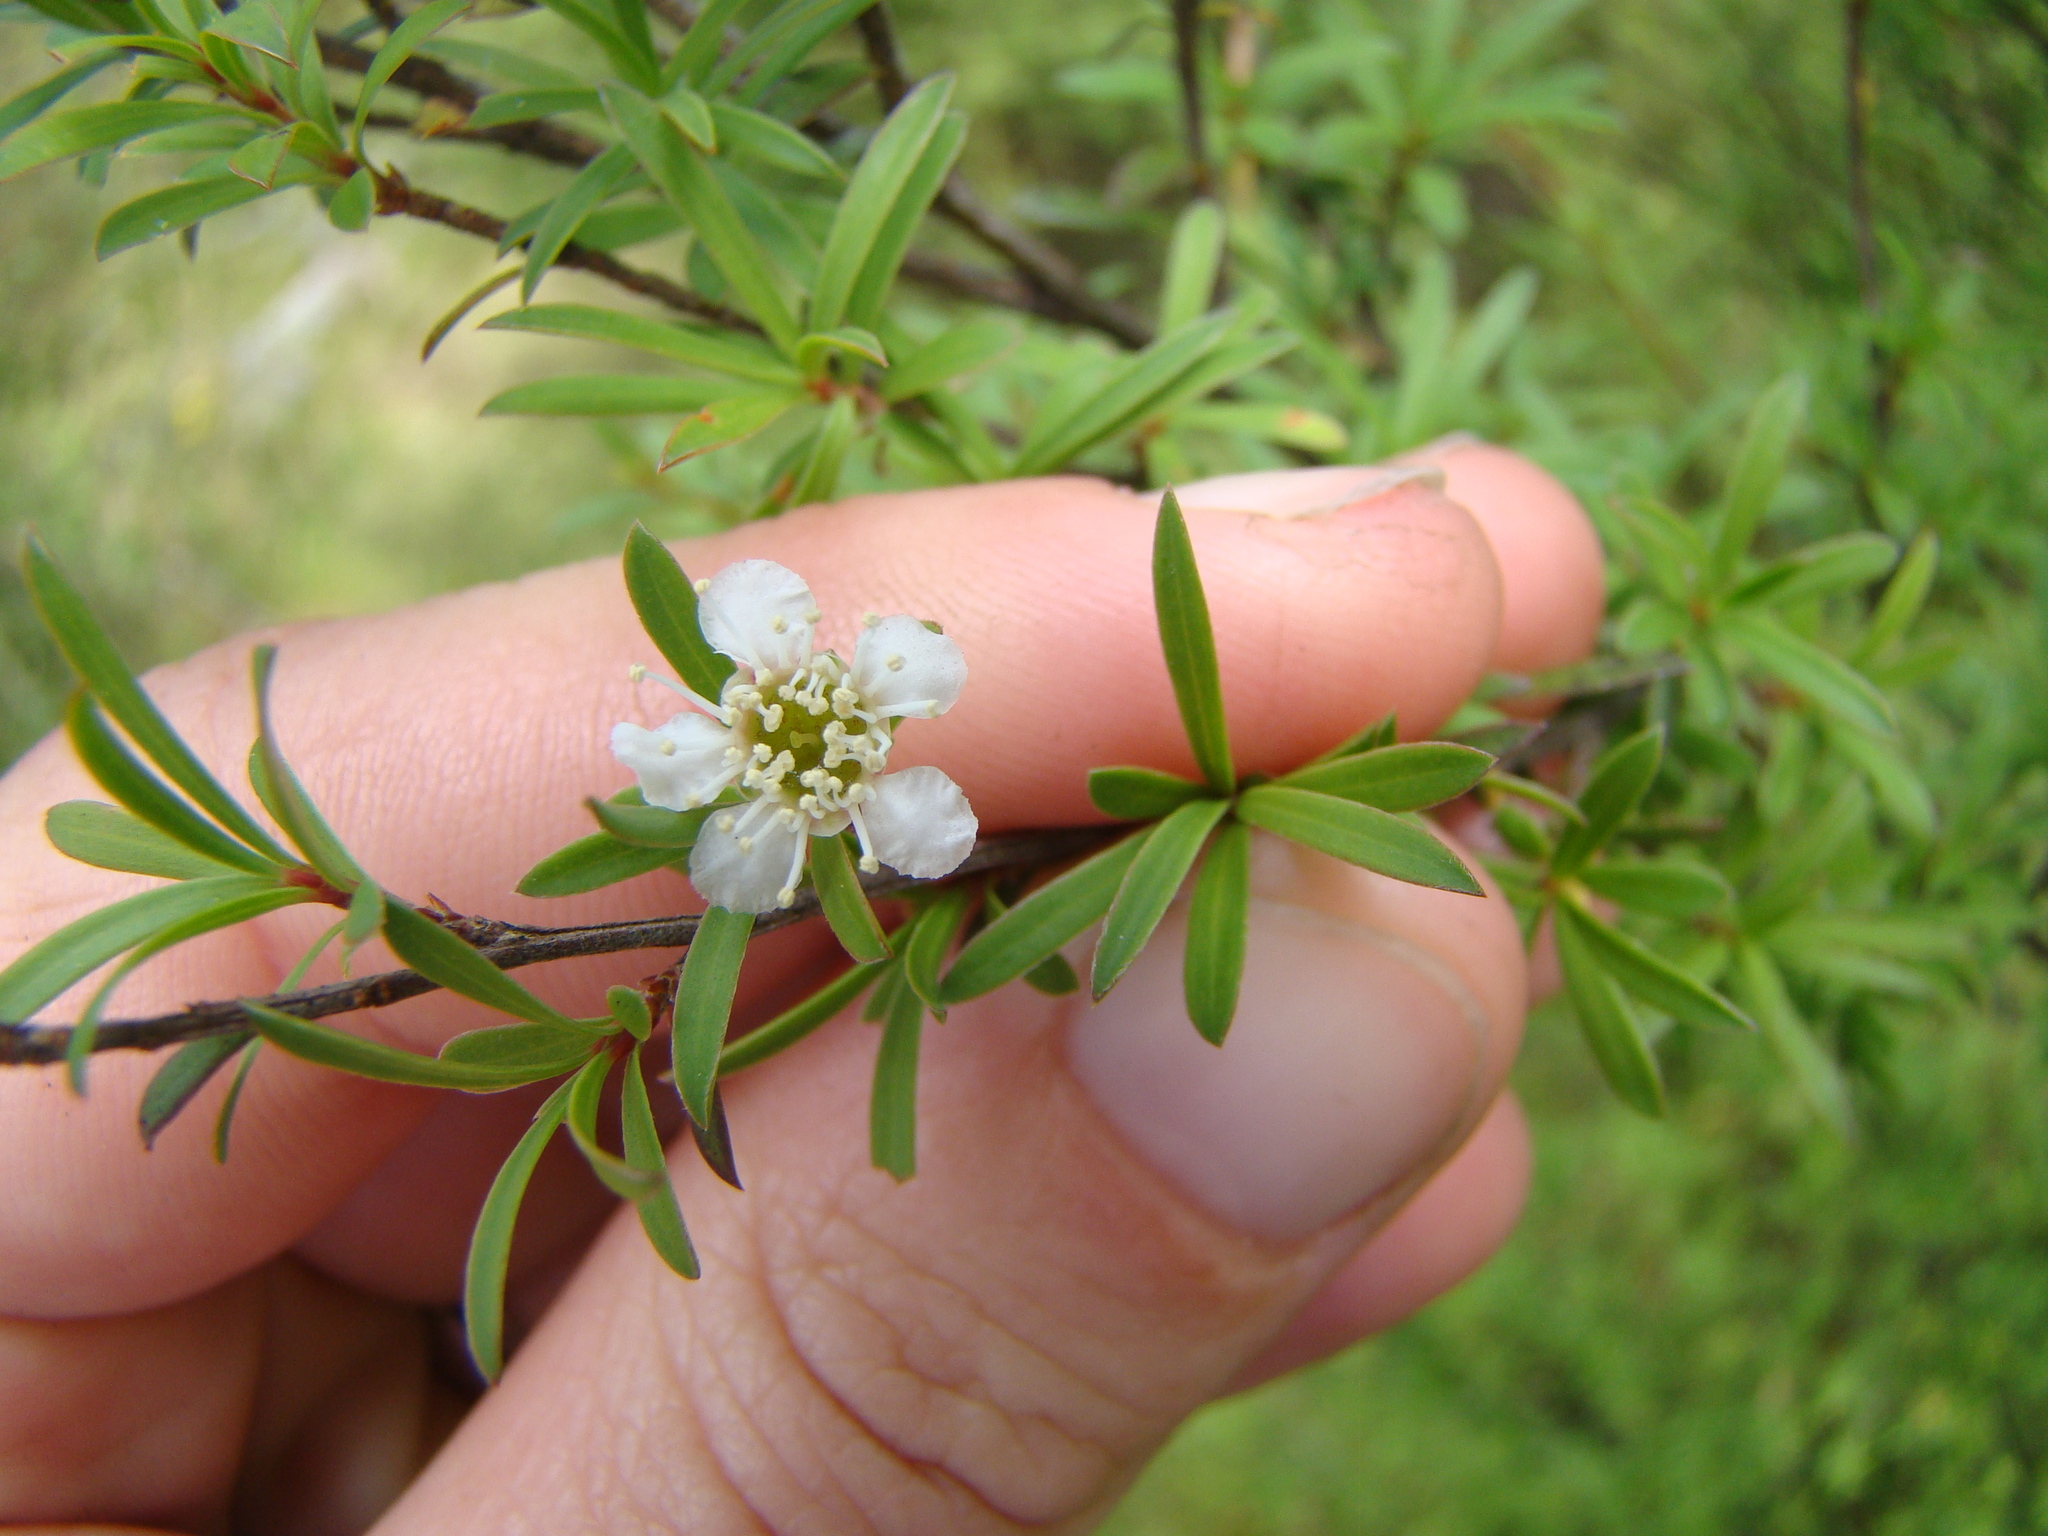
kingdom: Plantae
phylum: Tracheophyta
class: Magnoliopsida
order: Myrtales
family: Myrtaceae
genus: Leptospermum
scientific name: Leptospermum scoparium
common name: Broom tea-tree
